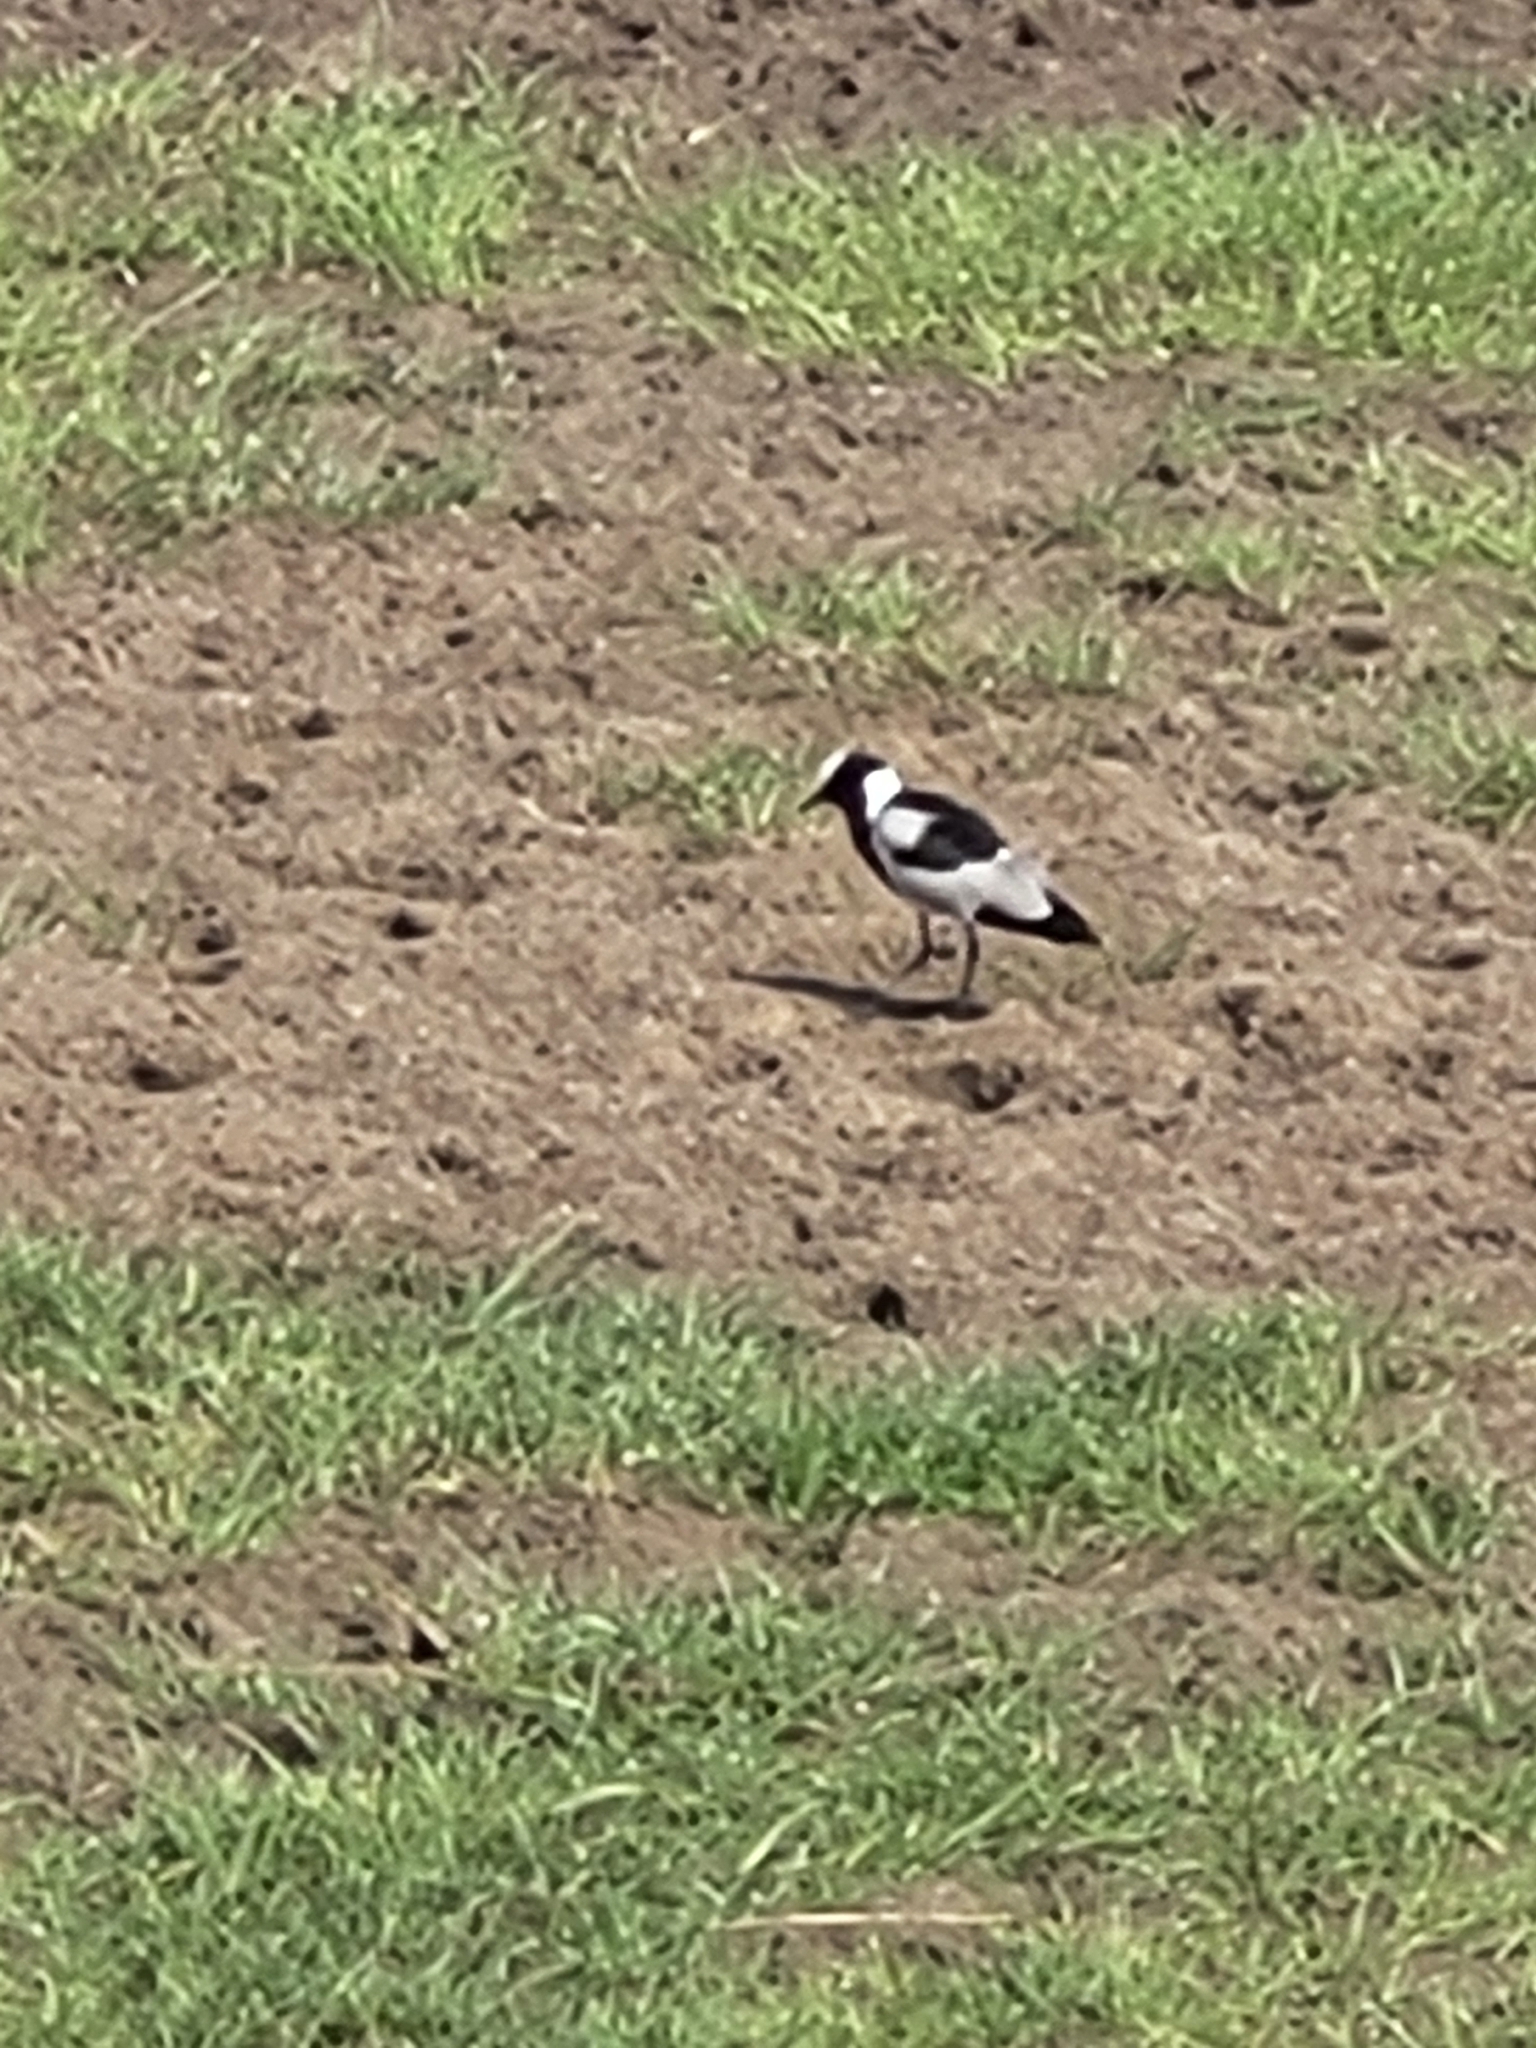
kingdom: Animalia
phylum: Chordata
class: Aves
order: Charadriiformes
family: Charadriidae
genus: Vanellus
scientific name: Vanellus armatus
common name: Blacksmith lapwing
